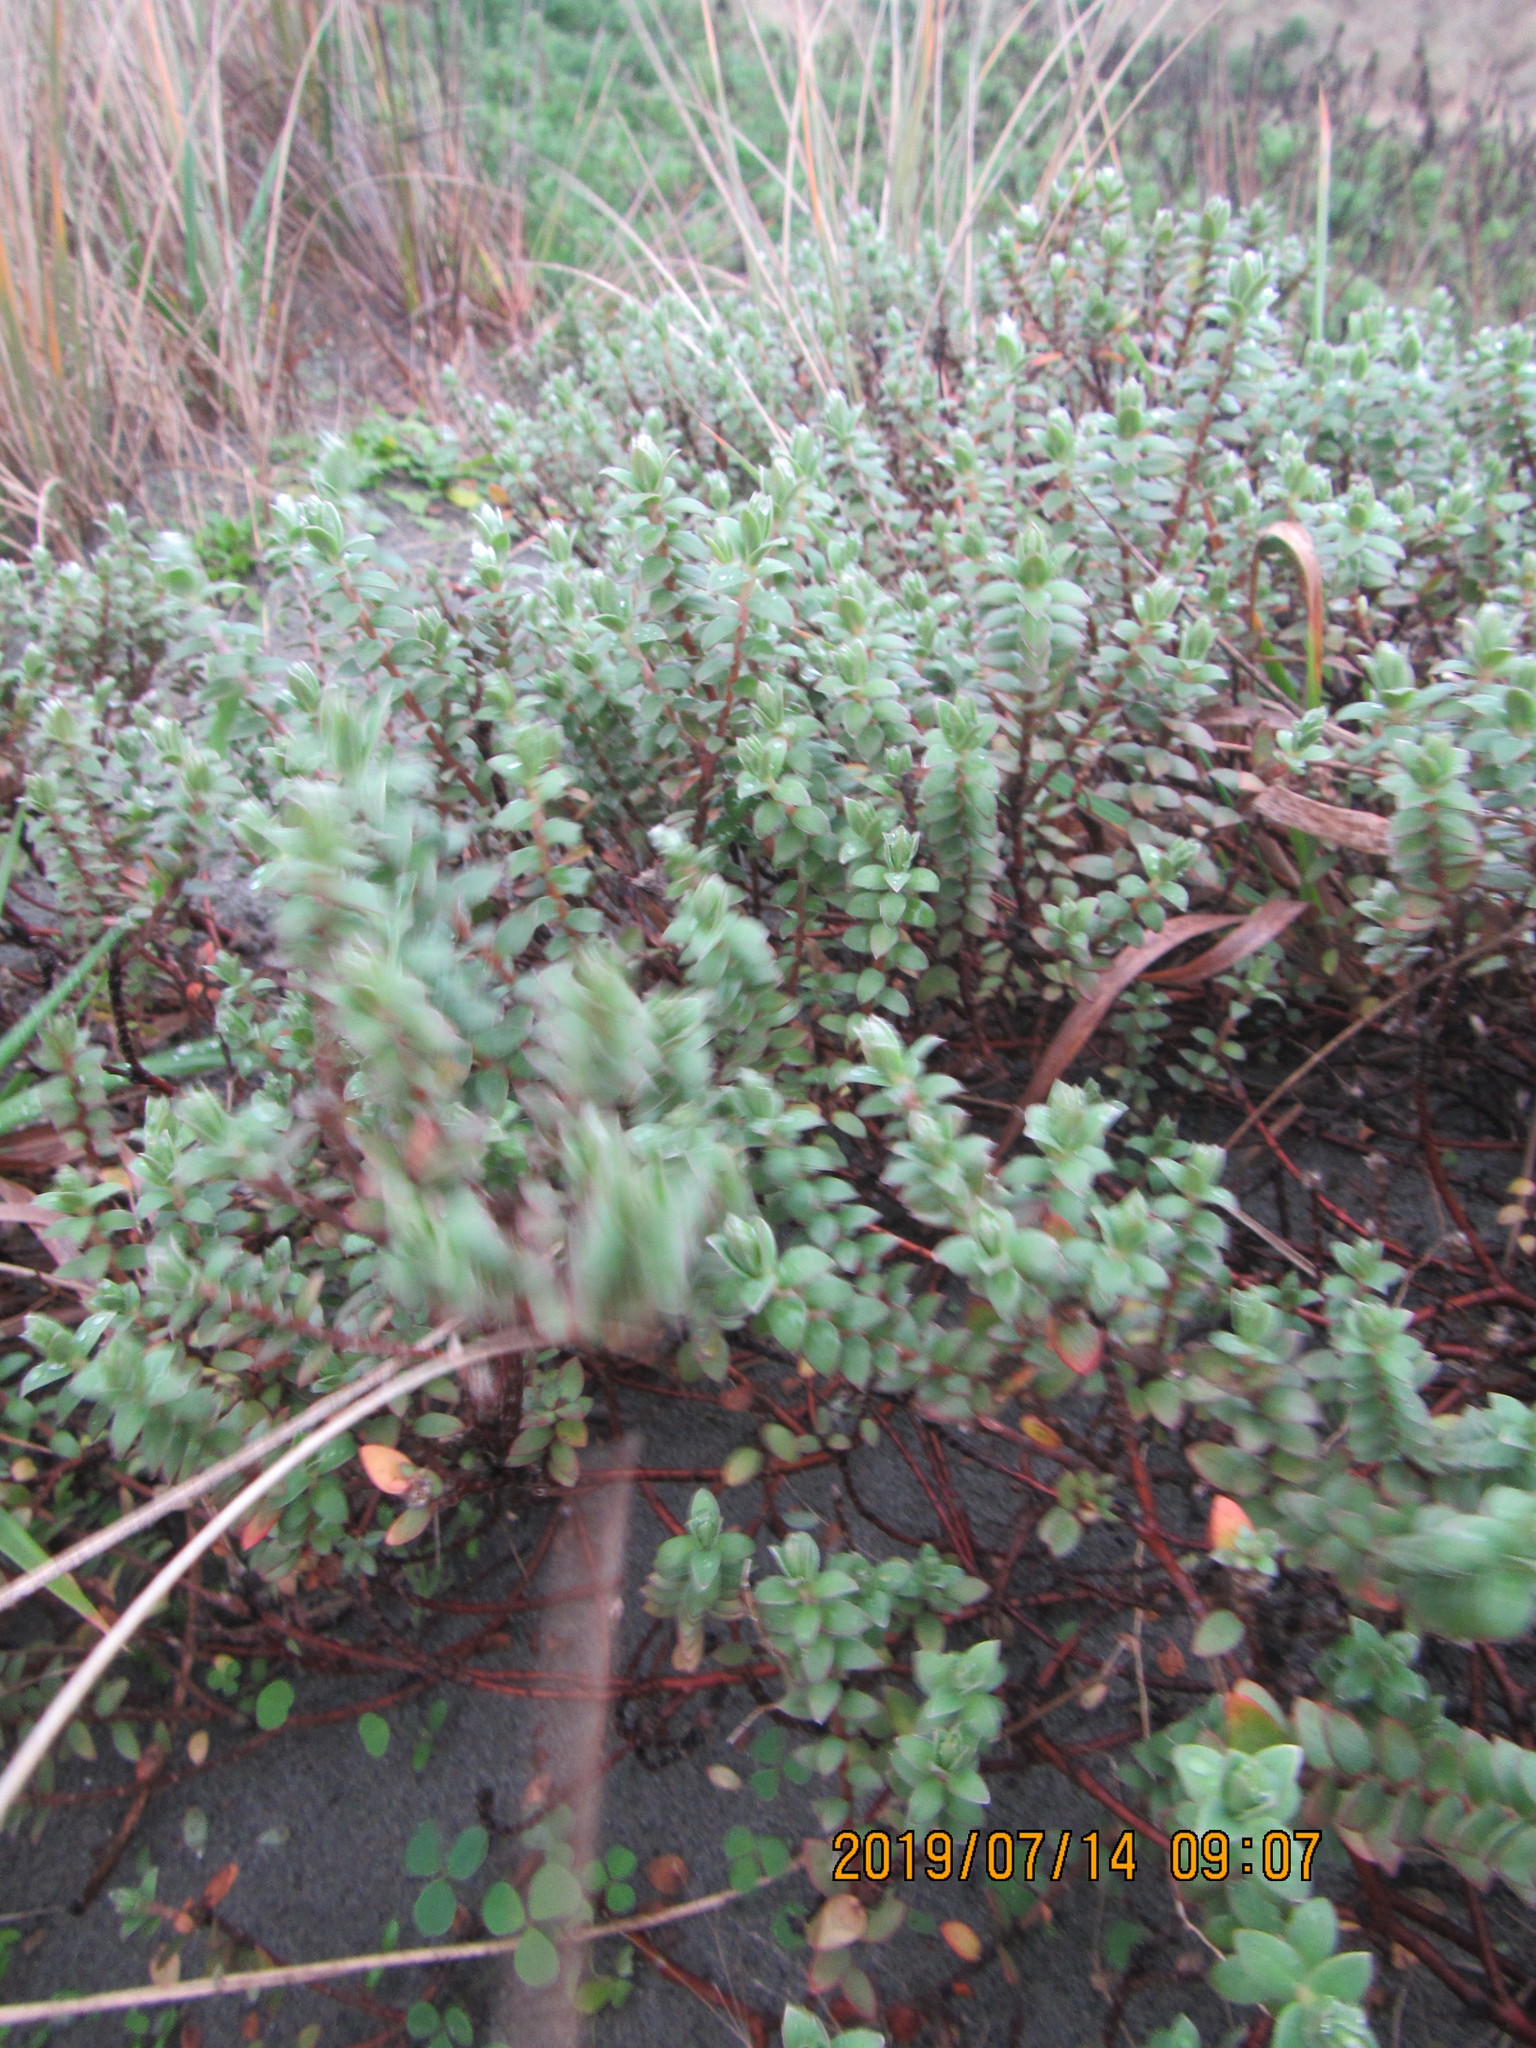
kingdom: Plantae
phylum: Tracheophyta
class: Magnoliopsida
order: Malvales
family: Thymelaeaceae
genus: Pimelea
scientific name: Pimelea villosa
